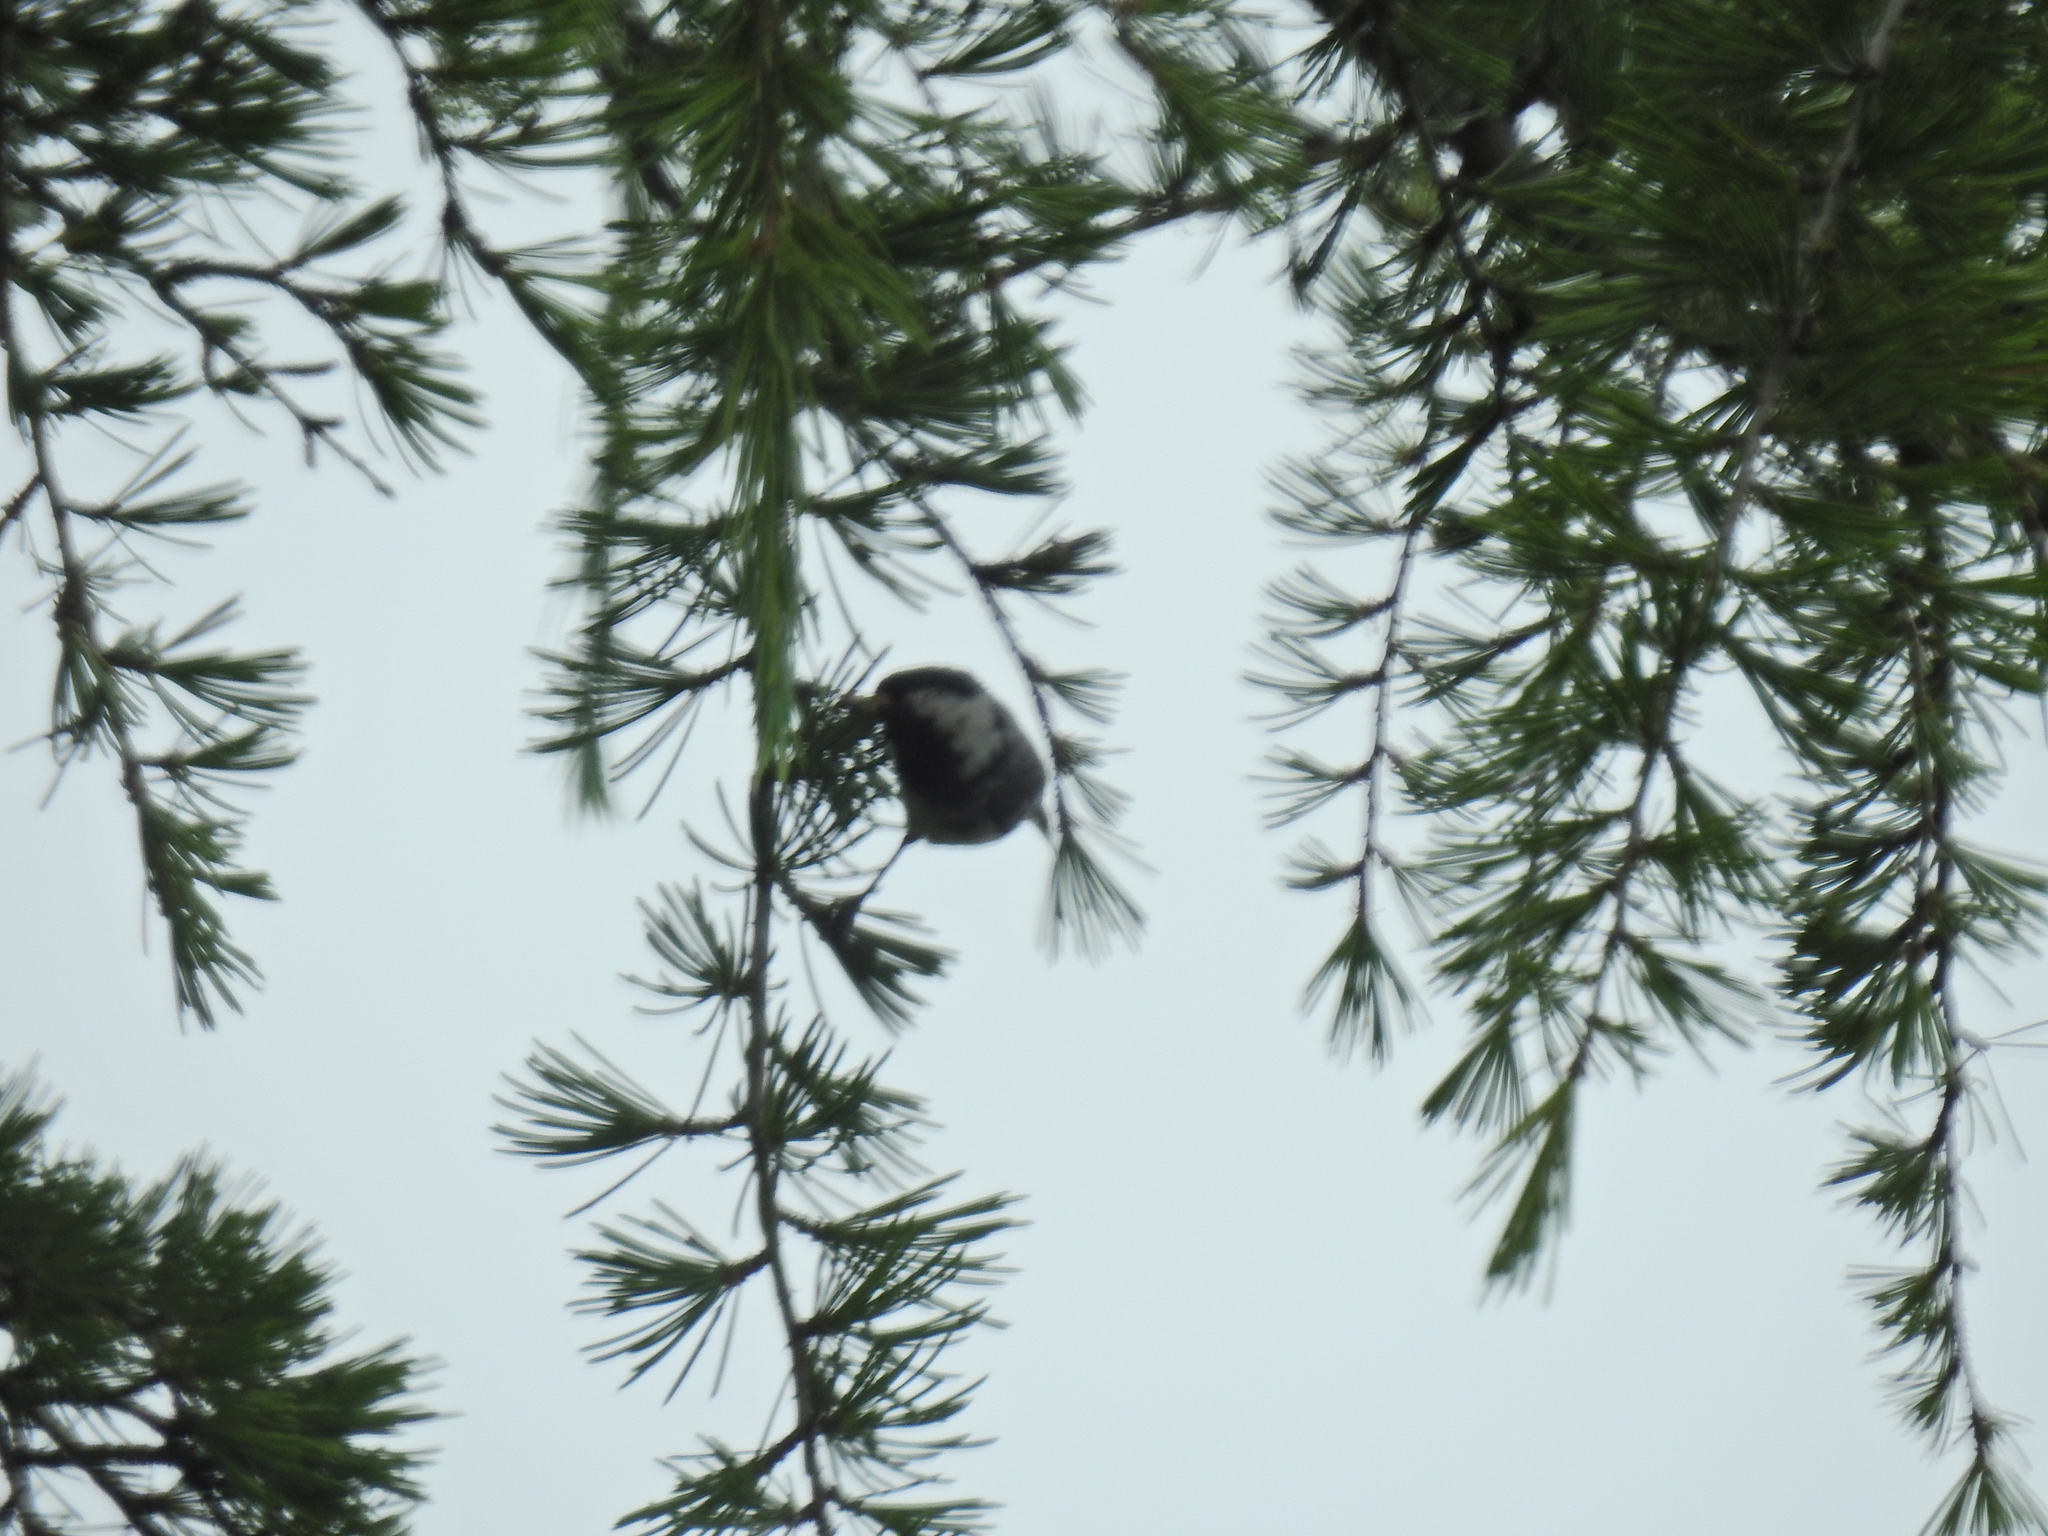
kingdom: Animalia
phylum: Chordata
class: Aves
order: Passeriformes
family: Paridae
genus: Periparus
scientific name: Periparus ater
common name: Coal tit
